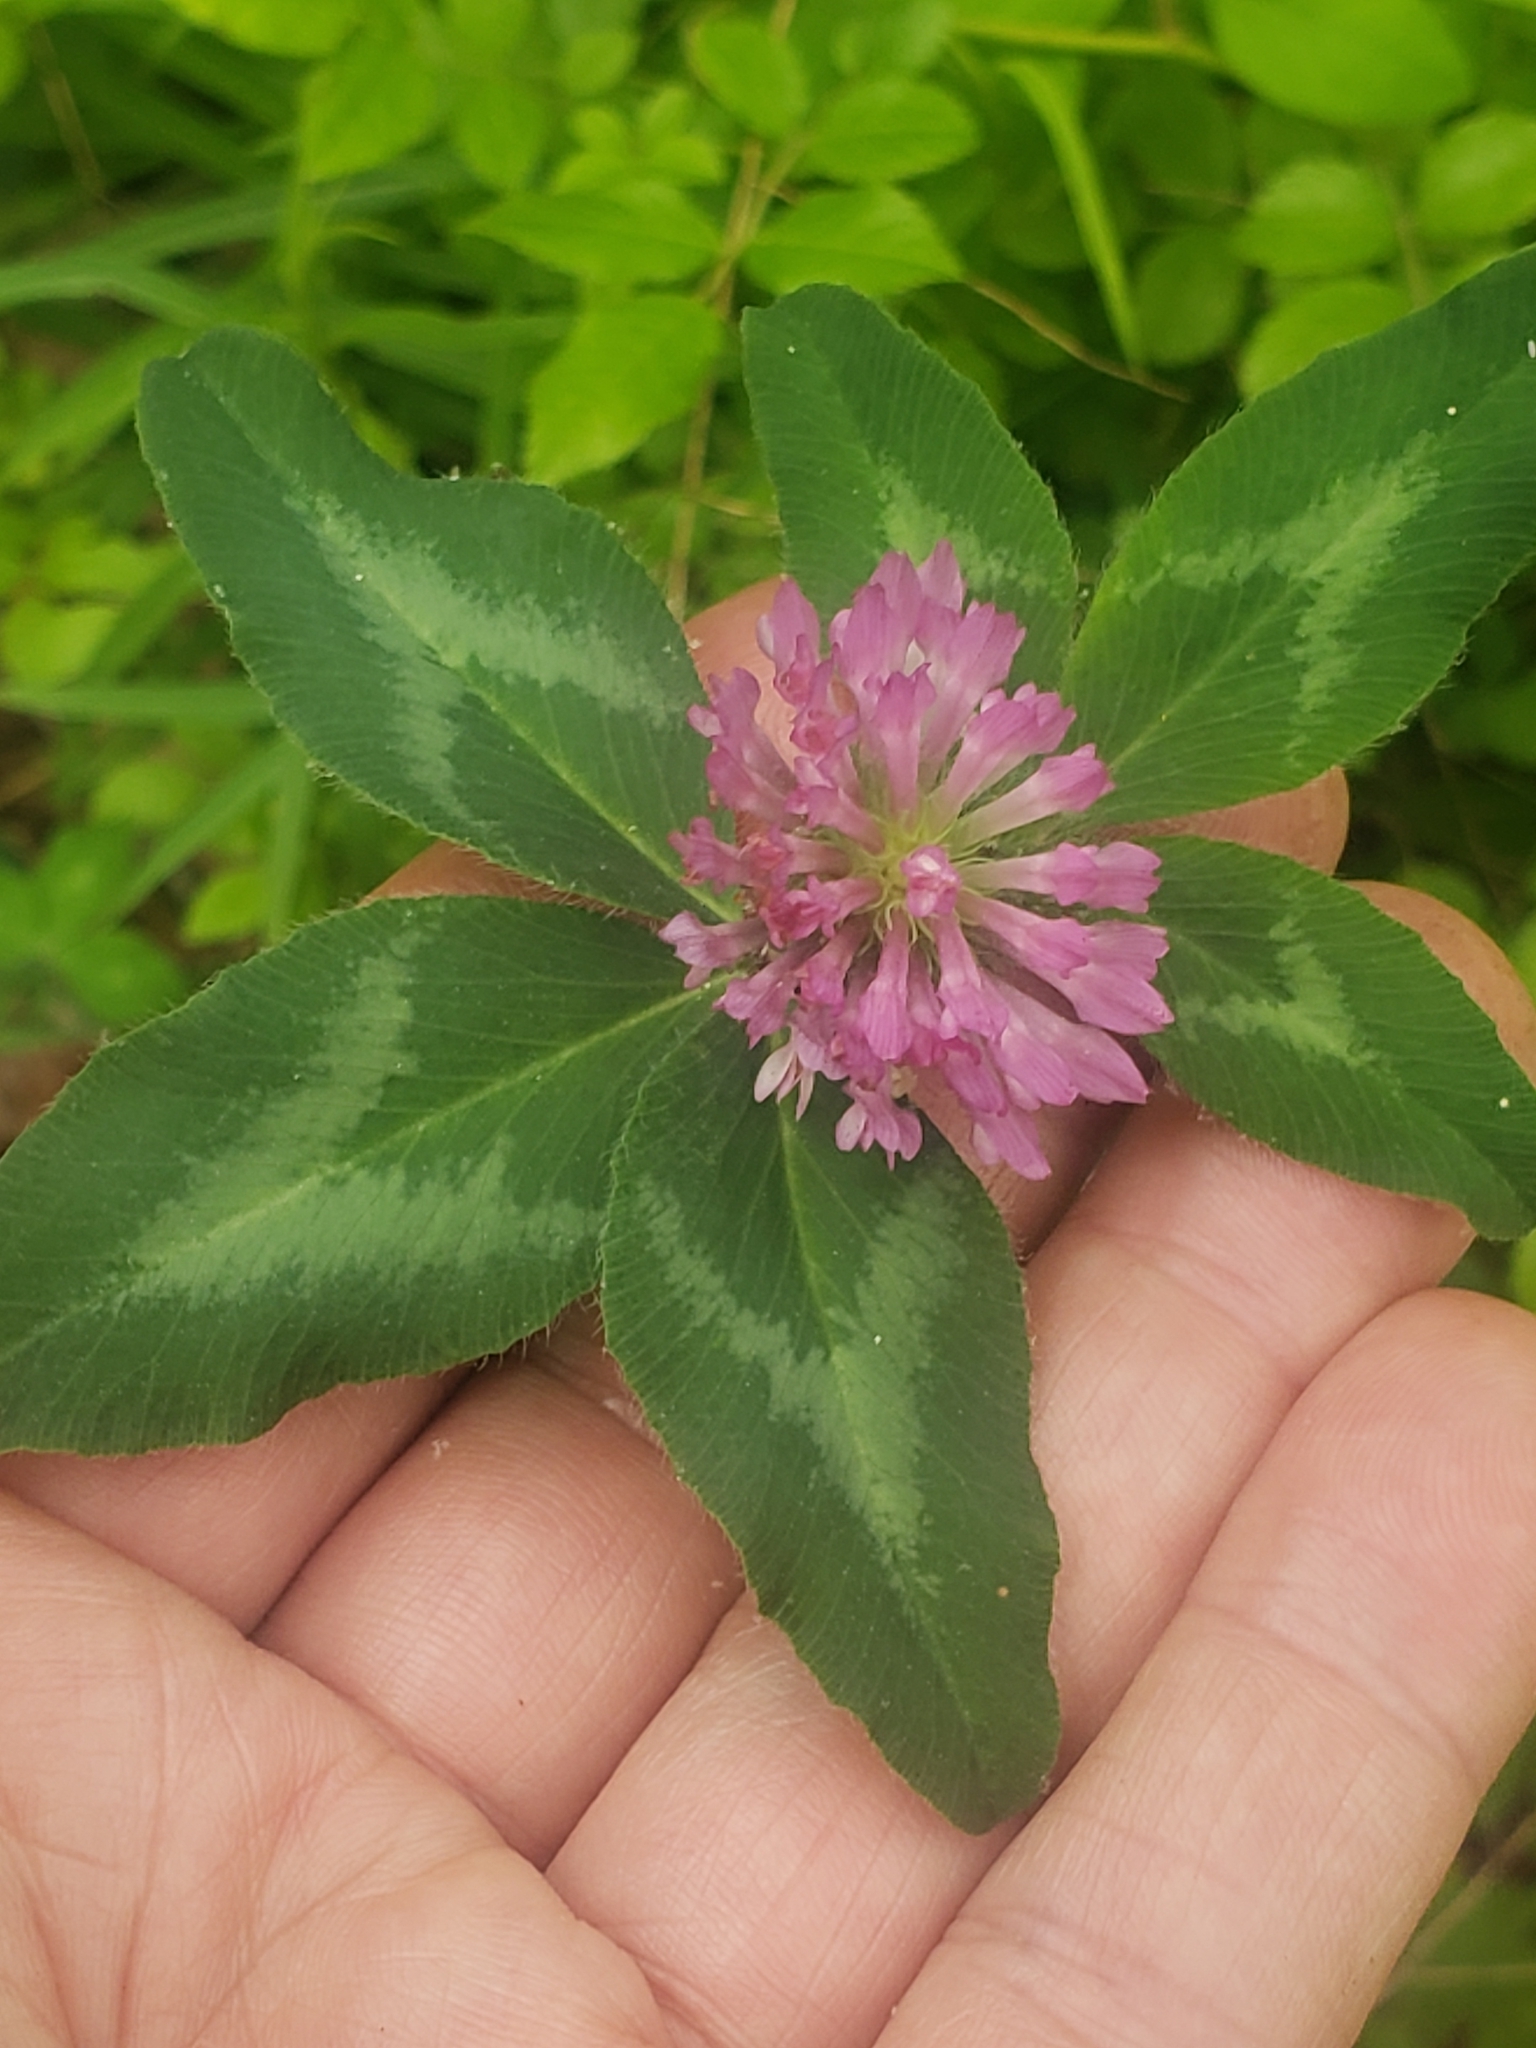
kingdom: Plantae
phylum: Tracheophyta
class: Magnoliopsida
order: Fabales
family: Fabaceae
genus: Trifolium
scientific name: Trifolium pratense
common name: Red clover
